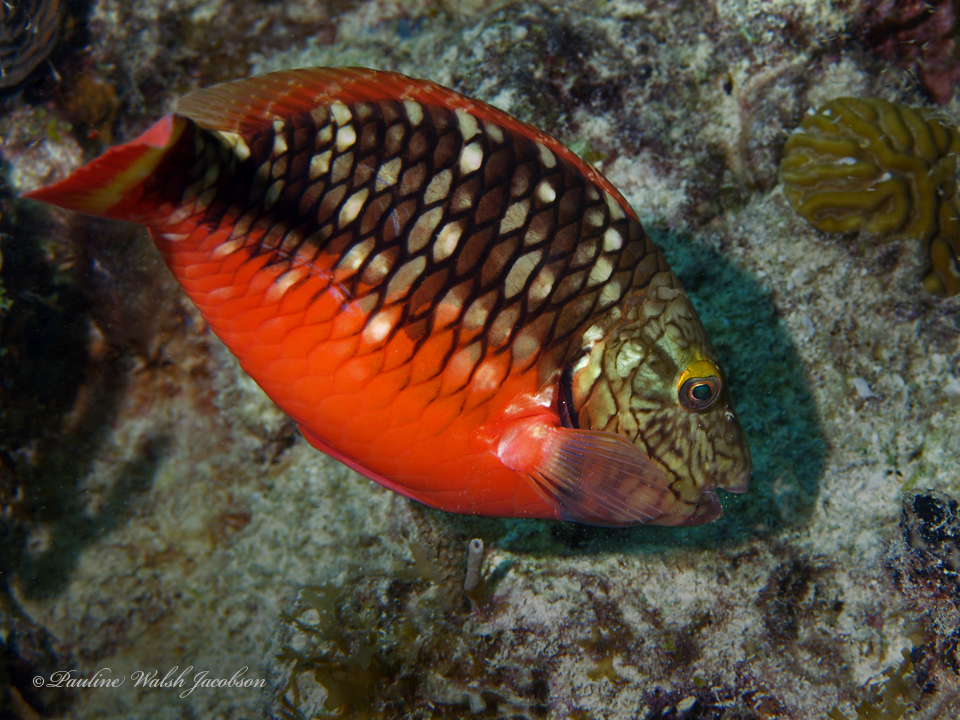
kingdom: Animalia
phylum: Chordata
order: Perciformes
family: Scaridae
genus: Sparisoma
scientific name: Sparisoma viride
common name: Stoplight parrotfish
